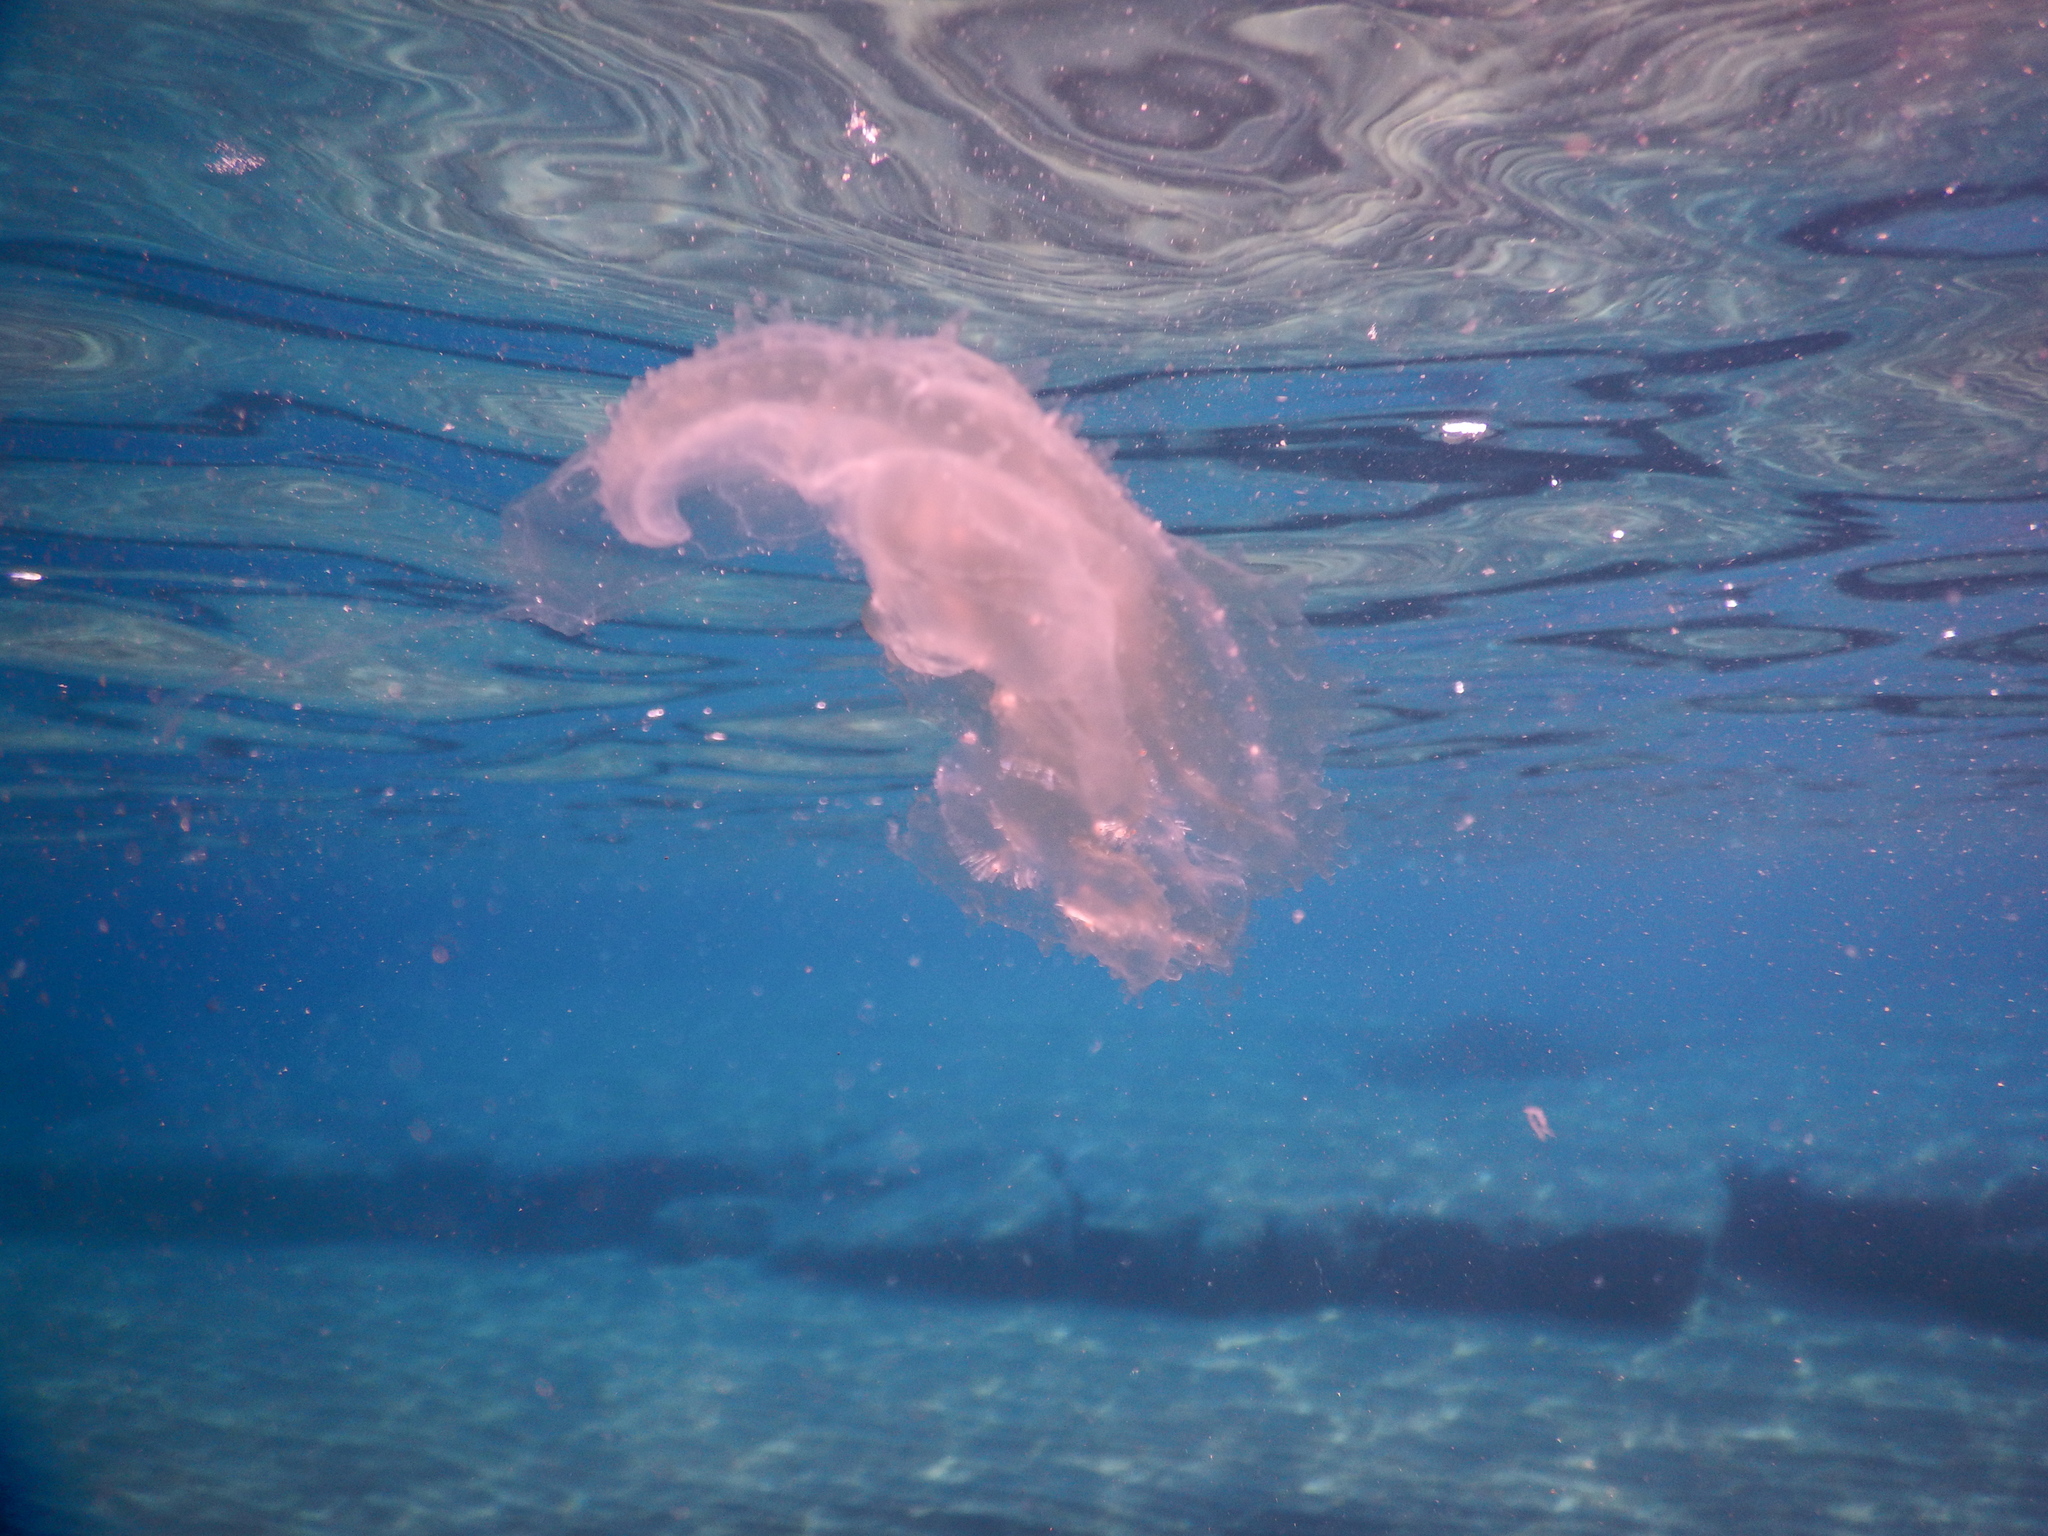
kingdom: Animalia
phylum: Ctenophora
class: Tentaculata
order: Lobata
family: Leucotheidae
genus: Leucothea
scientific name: Leucothea multicornis
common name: Vitreous lobate comb-jelly
